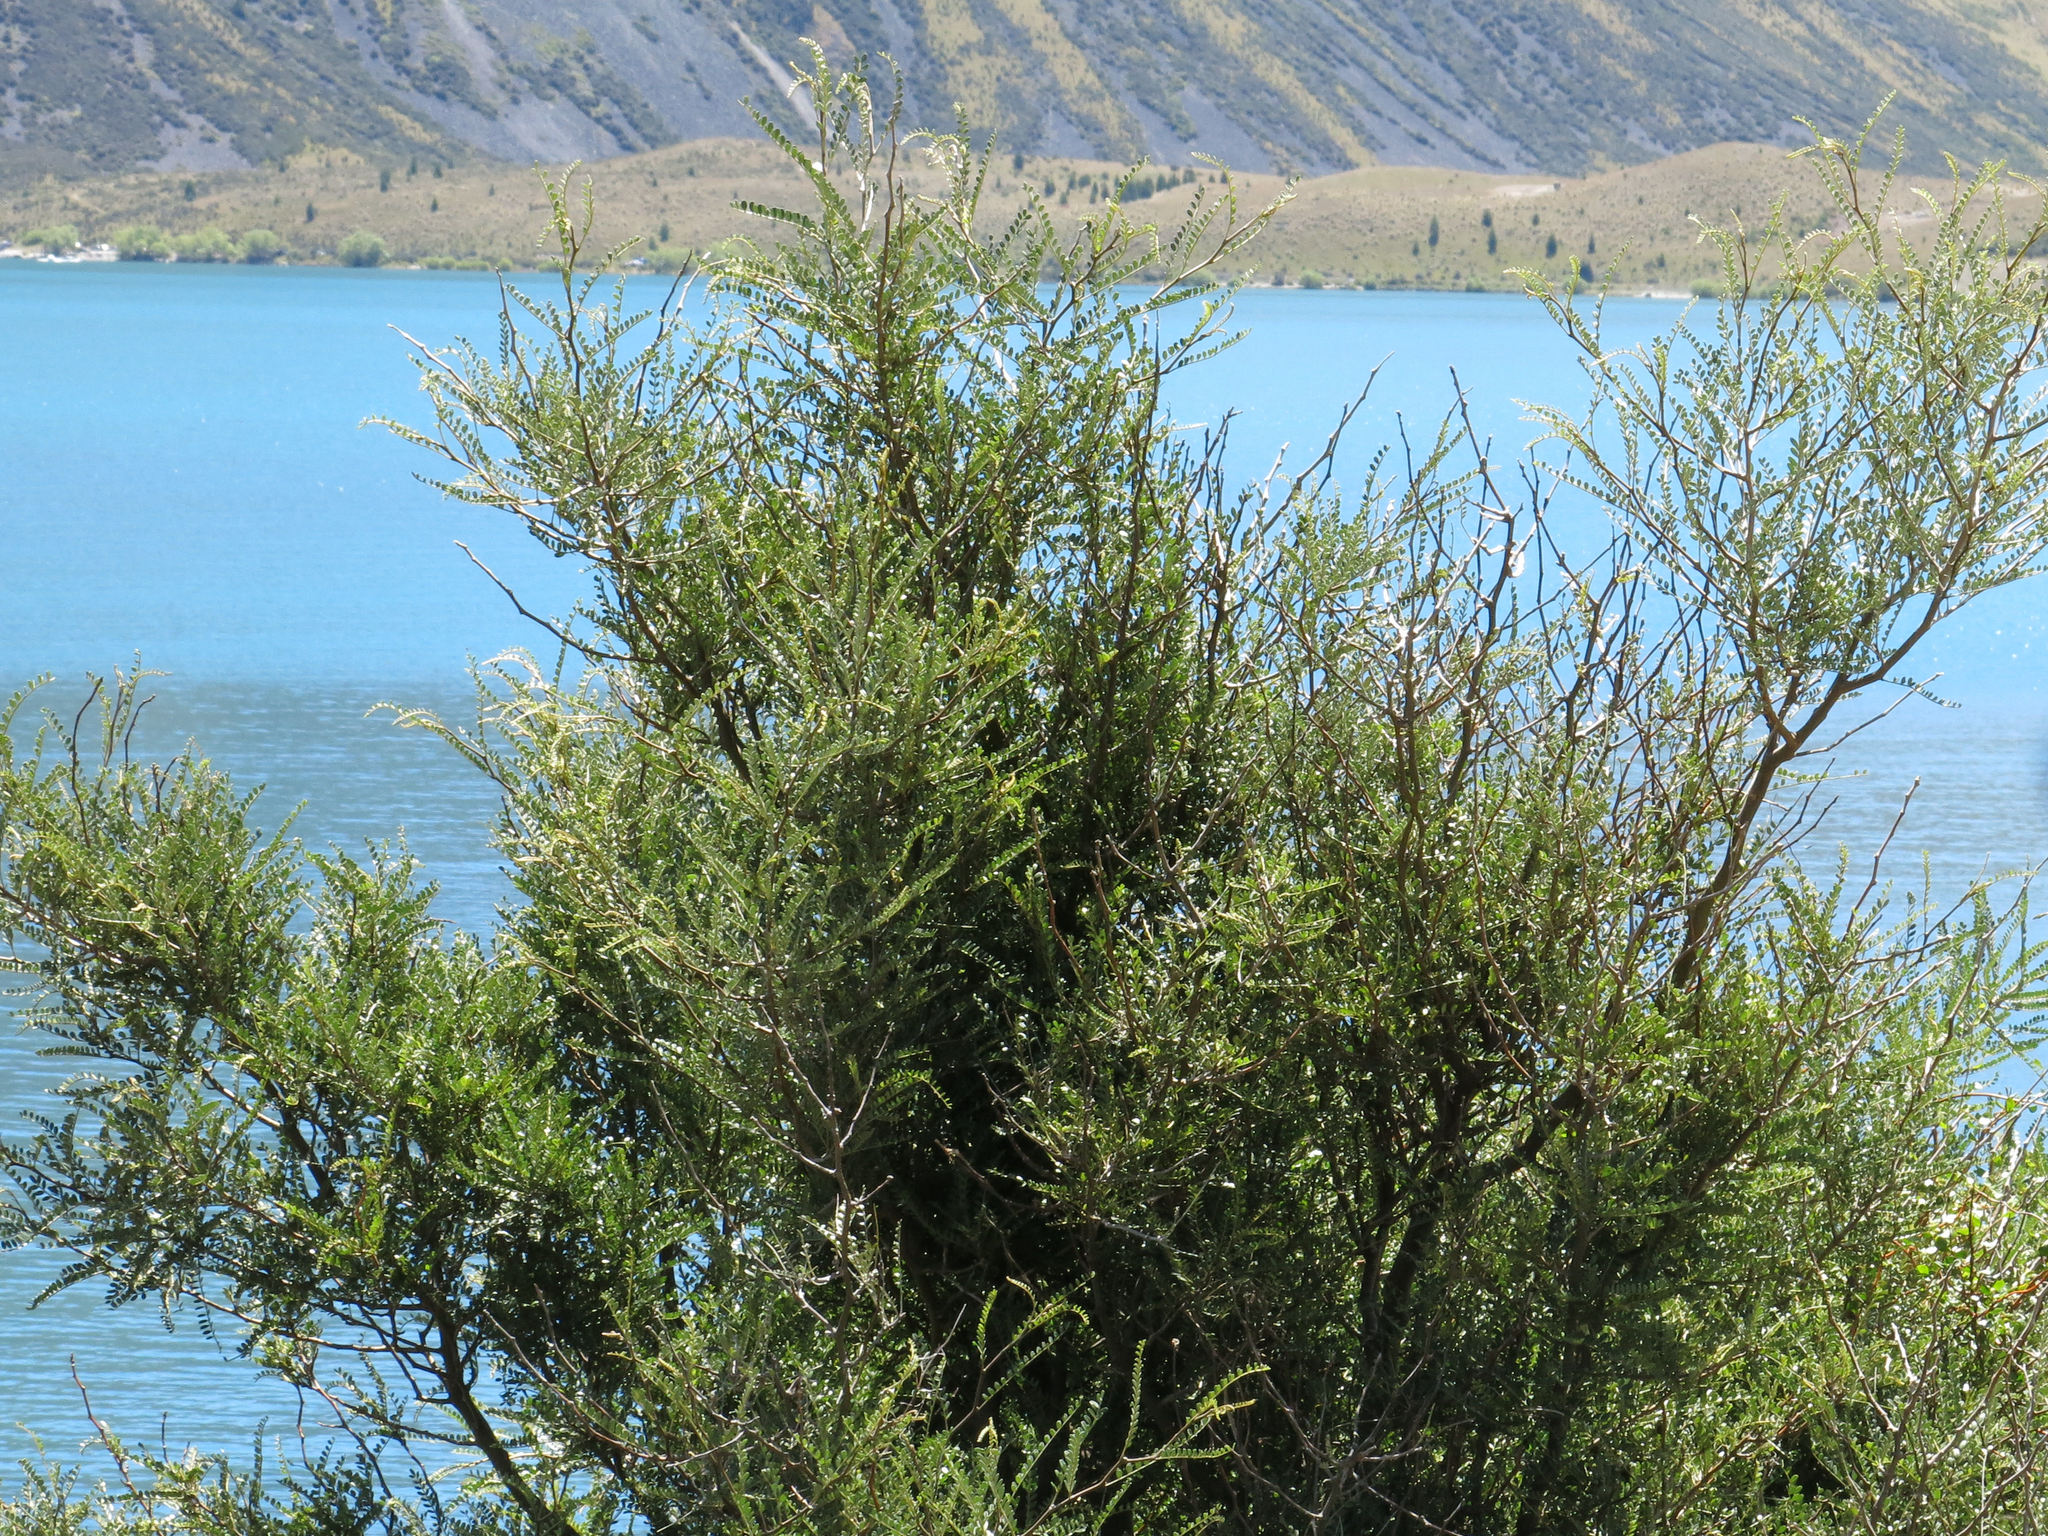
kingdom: Plantae
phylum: Tracheophyta
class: Magnoliopsida
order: Fabales
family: Fabaceae
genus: Sophora
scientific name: Sophora microphylla
